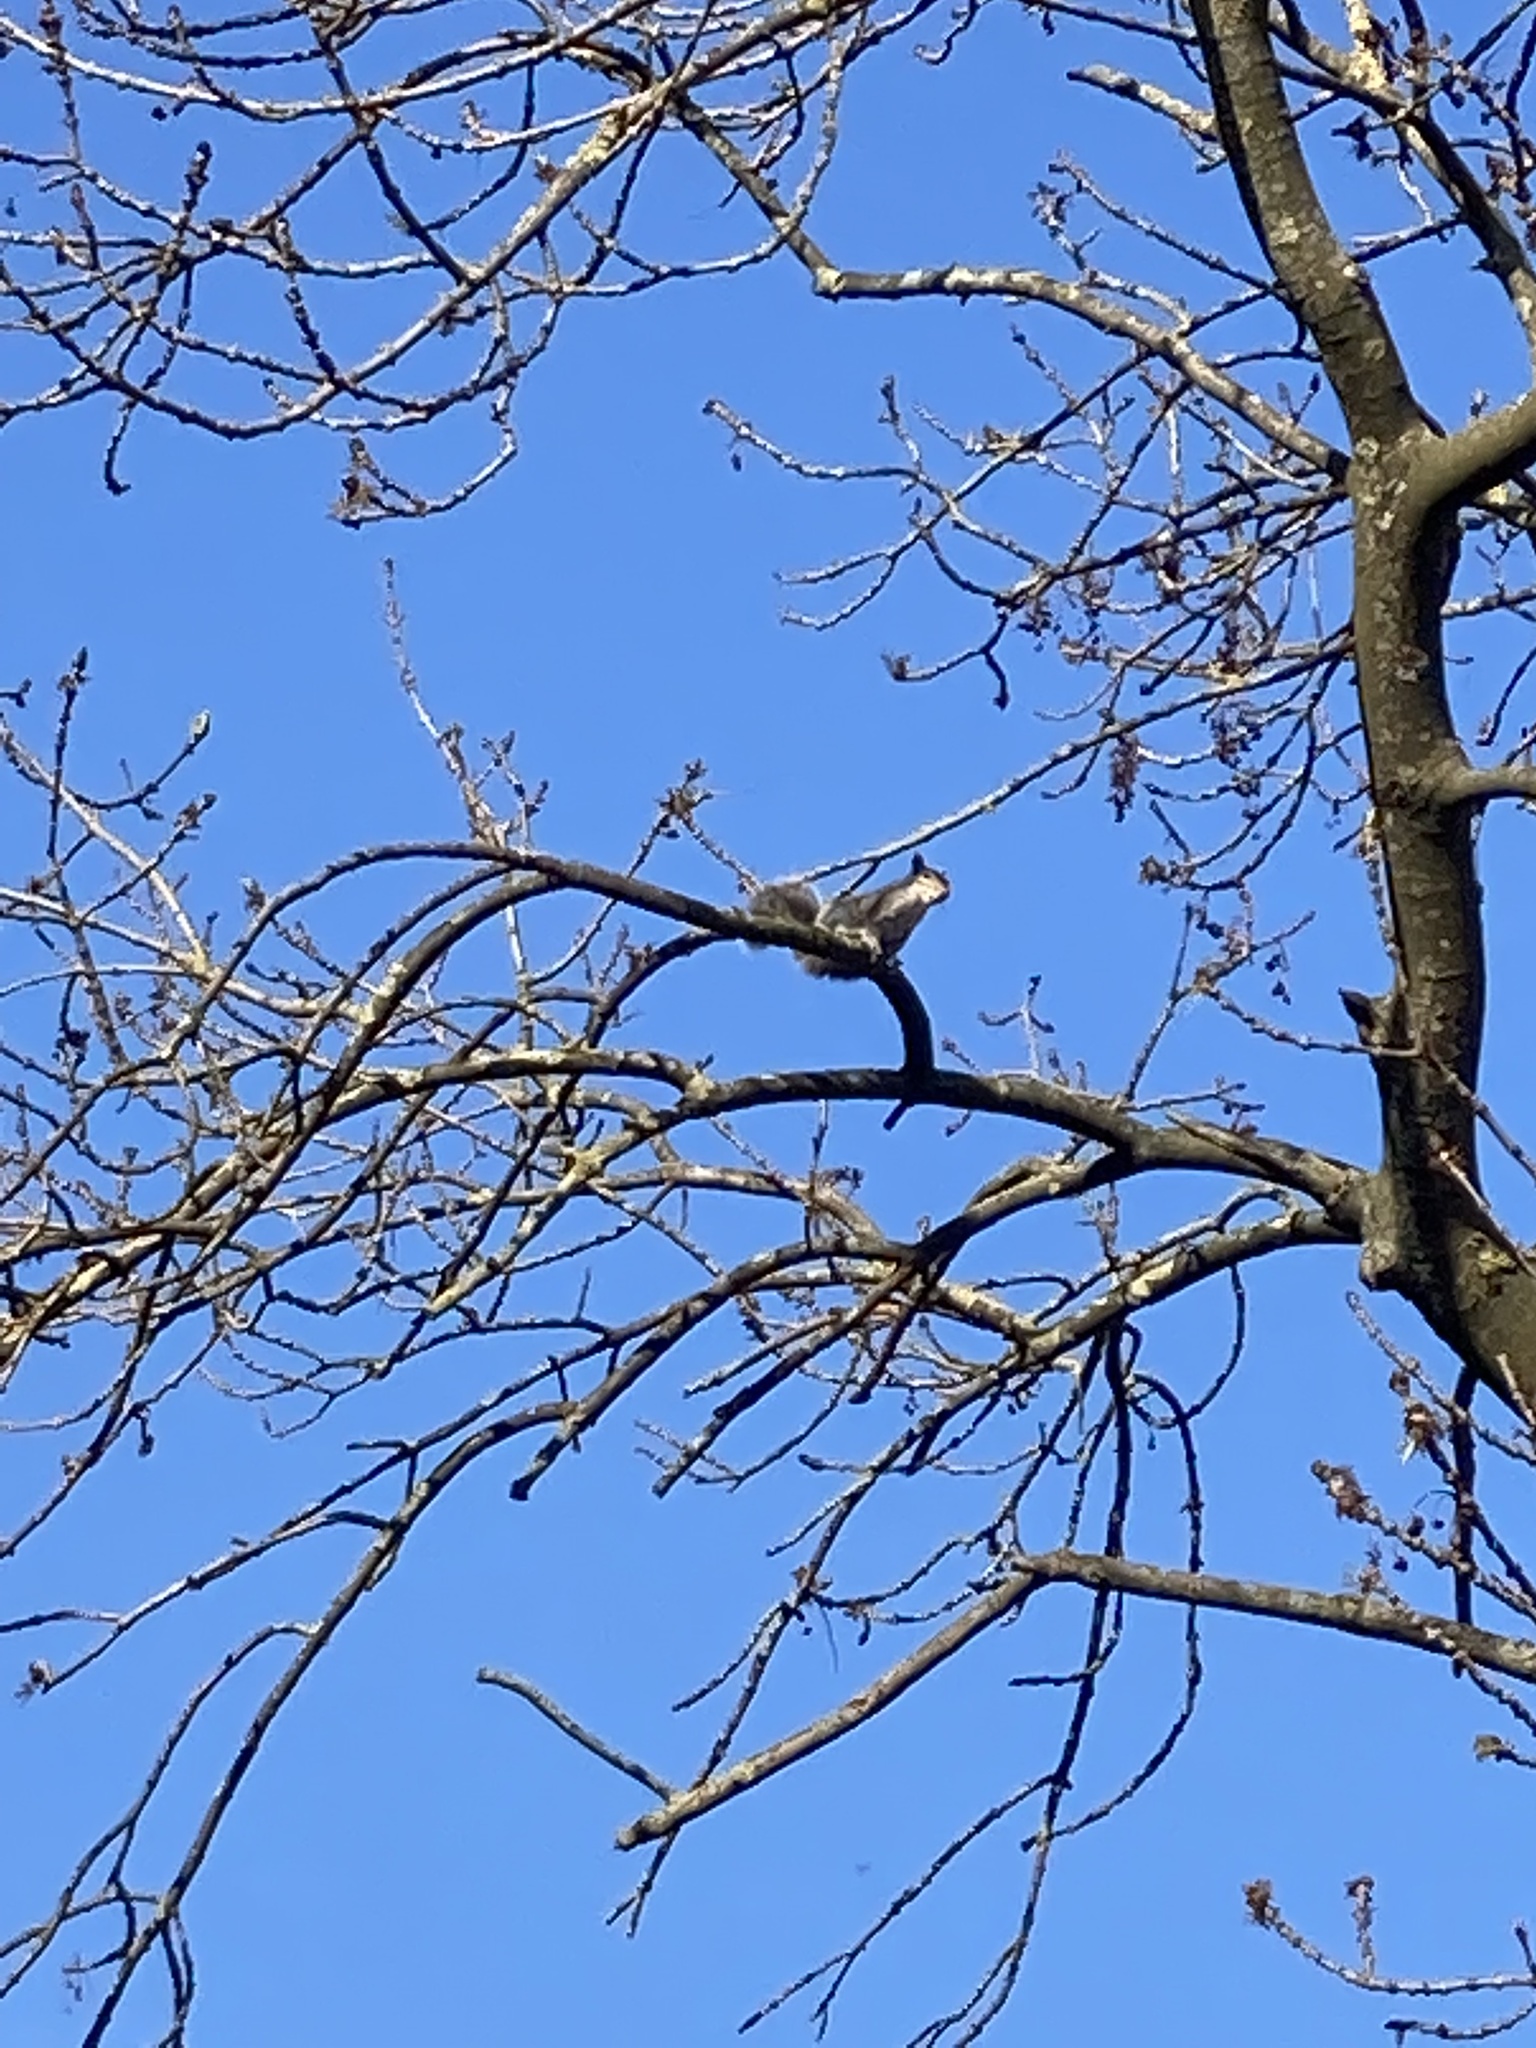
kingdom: Animalia
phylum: Chordata
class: Mammalia
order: Rodentia
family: Sciuridae
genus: Sciurus
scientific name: Sciurus carolinensis
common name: Eastern gray squirrel
